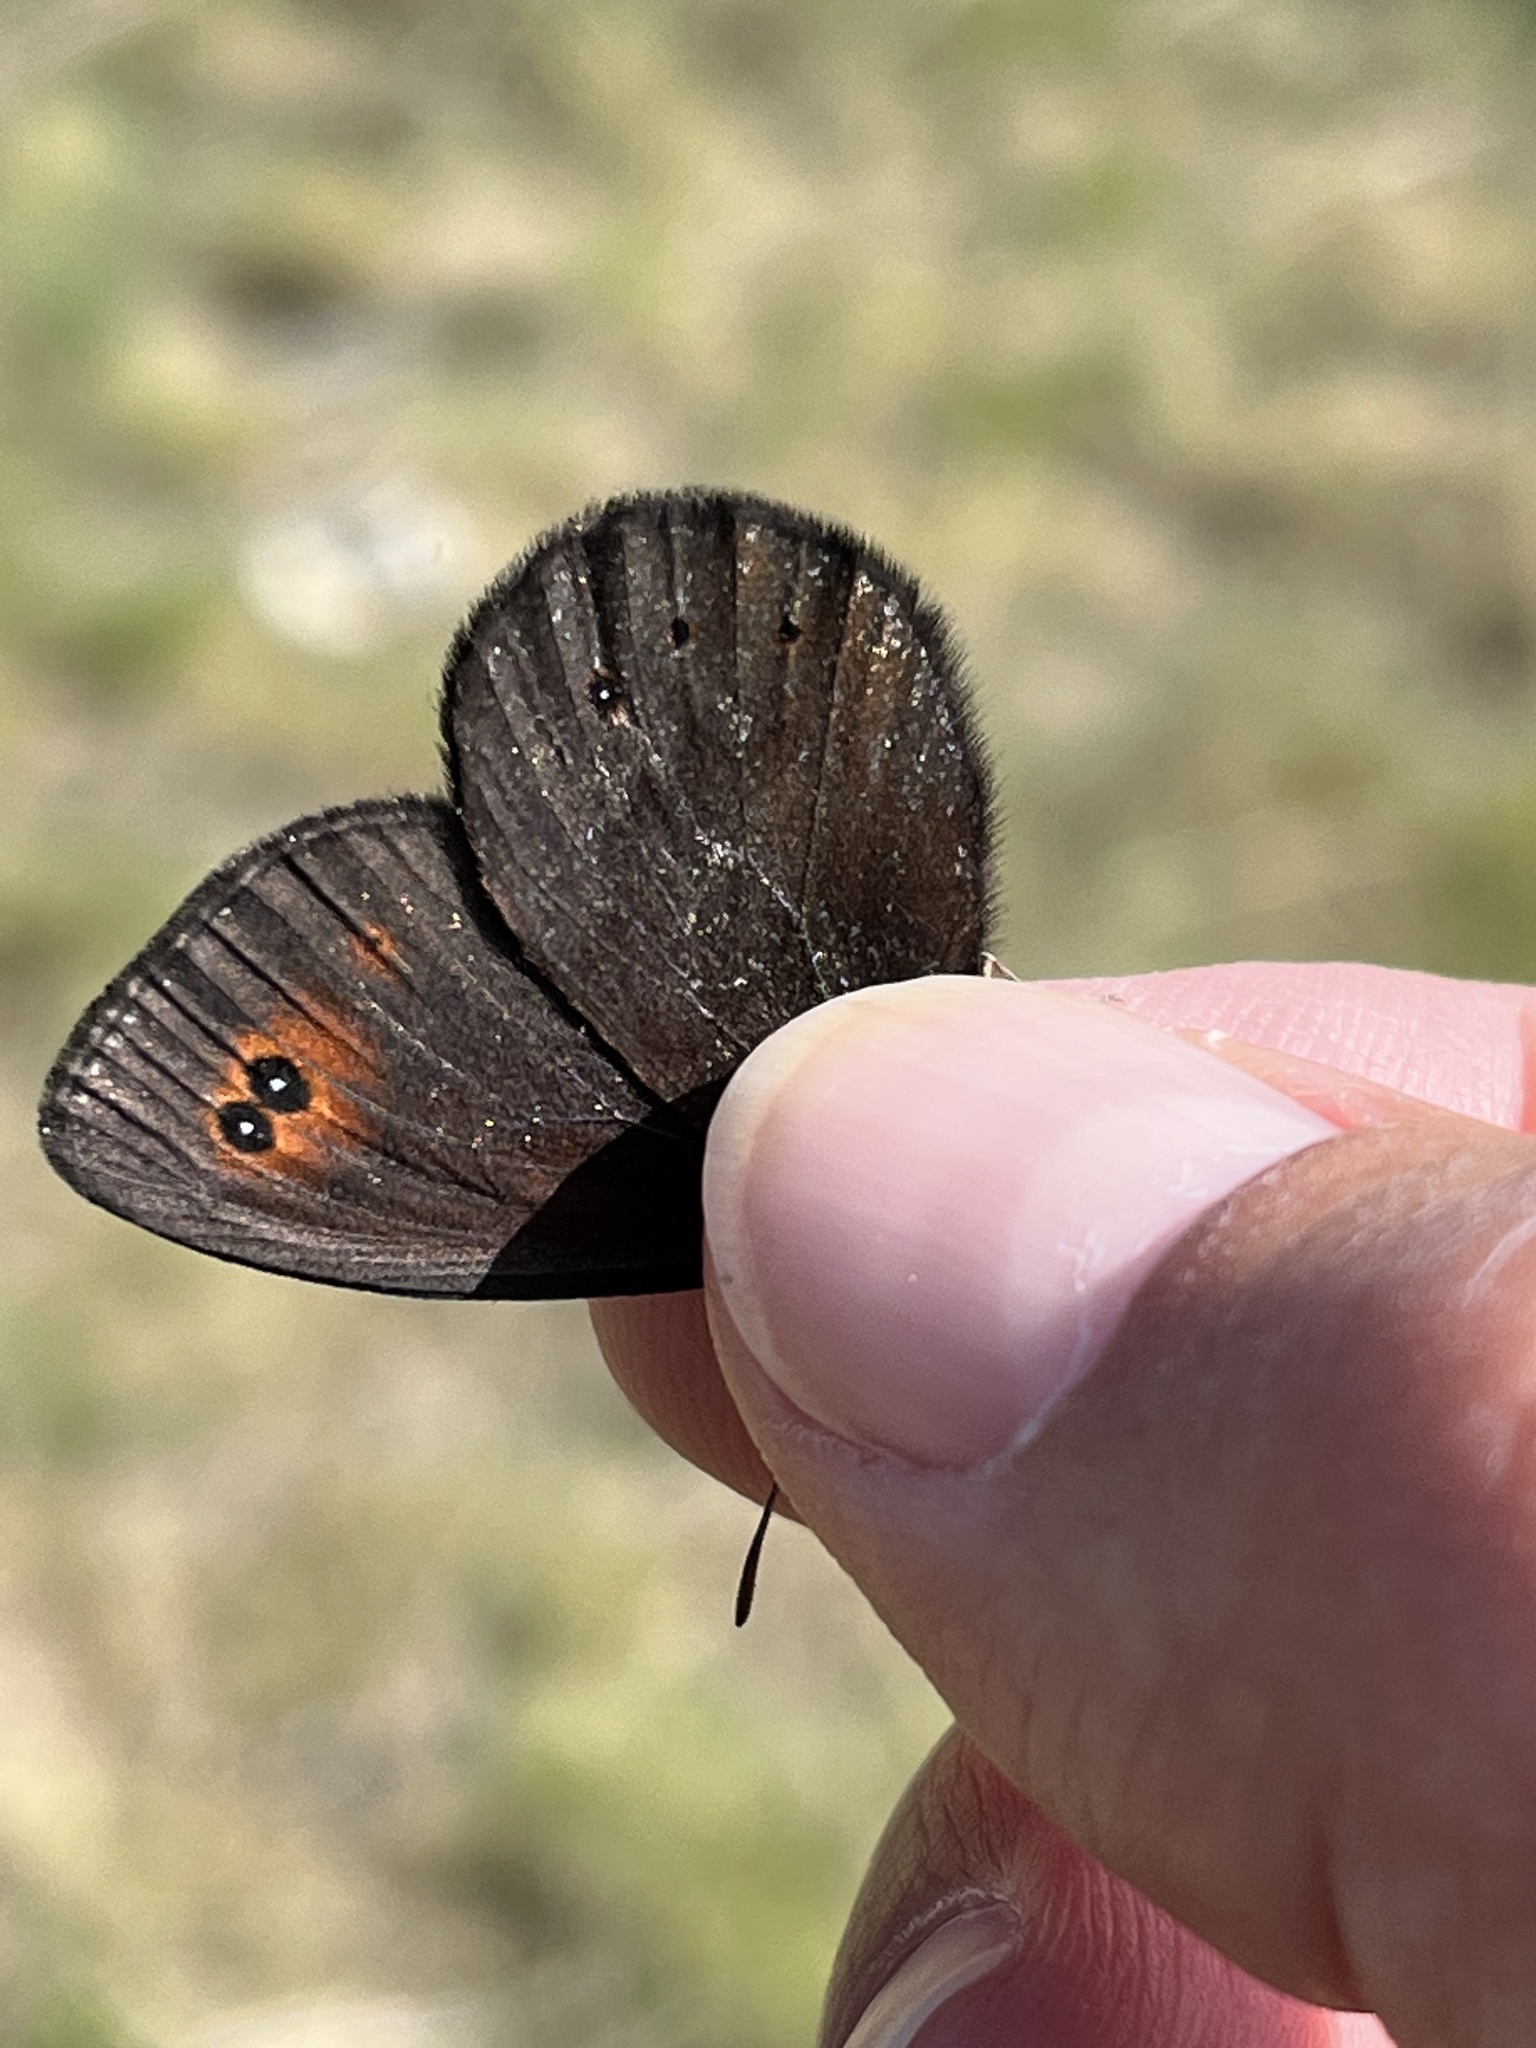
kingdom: Animalia
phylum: Arthropoda
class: Insecta
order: Lepidoptera
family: Nymphalidae
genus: Erebia
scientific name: Erebia epipsodea
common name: Common alpine
